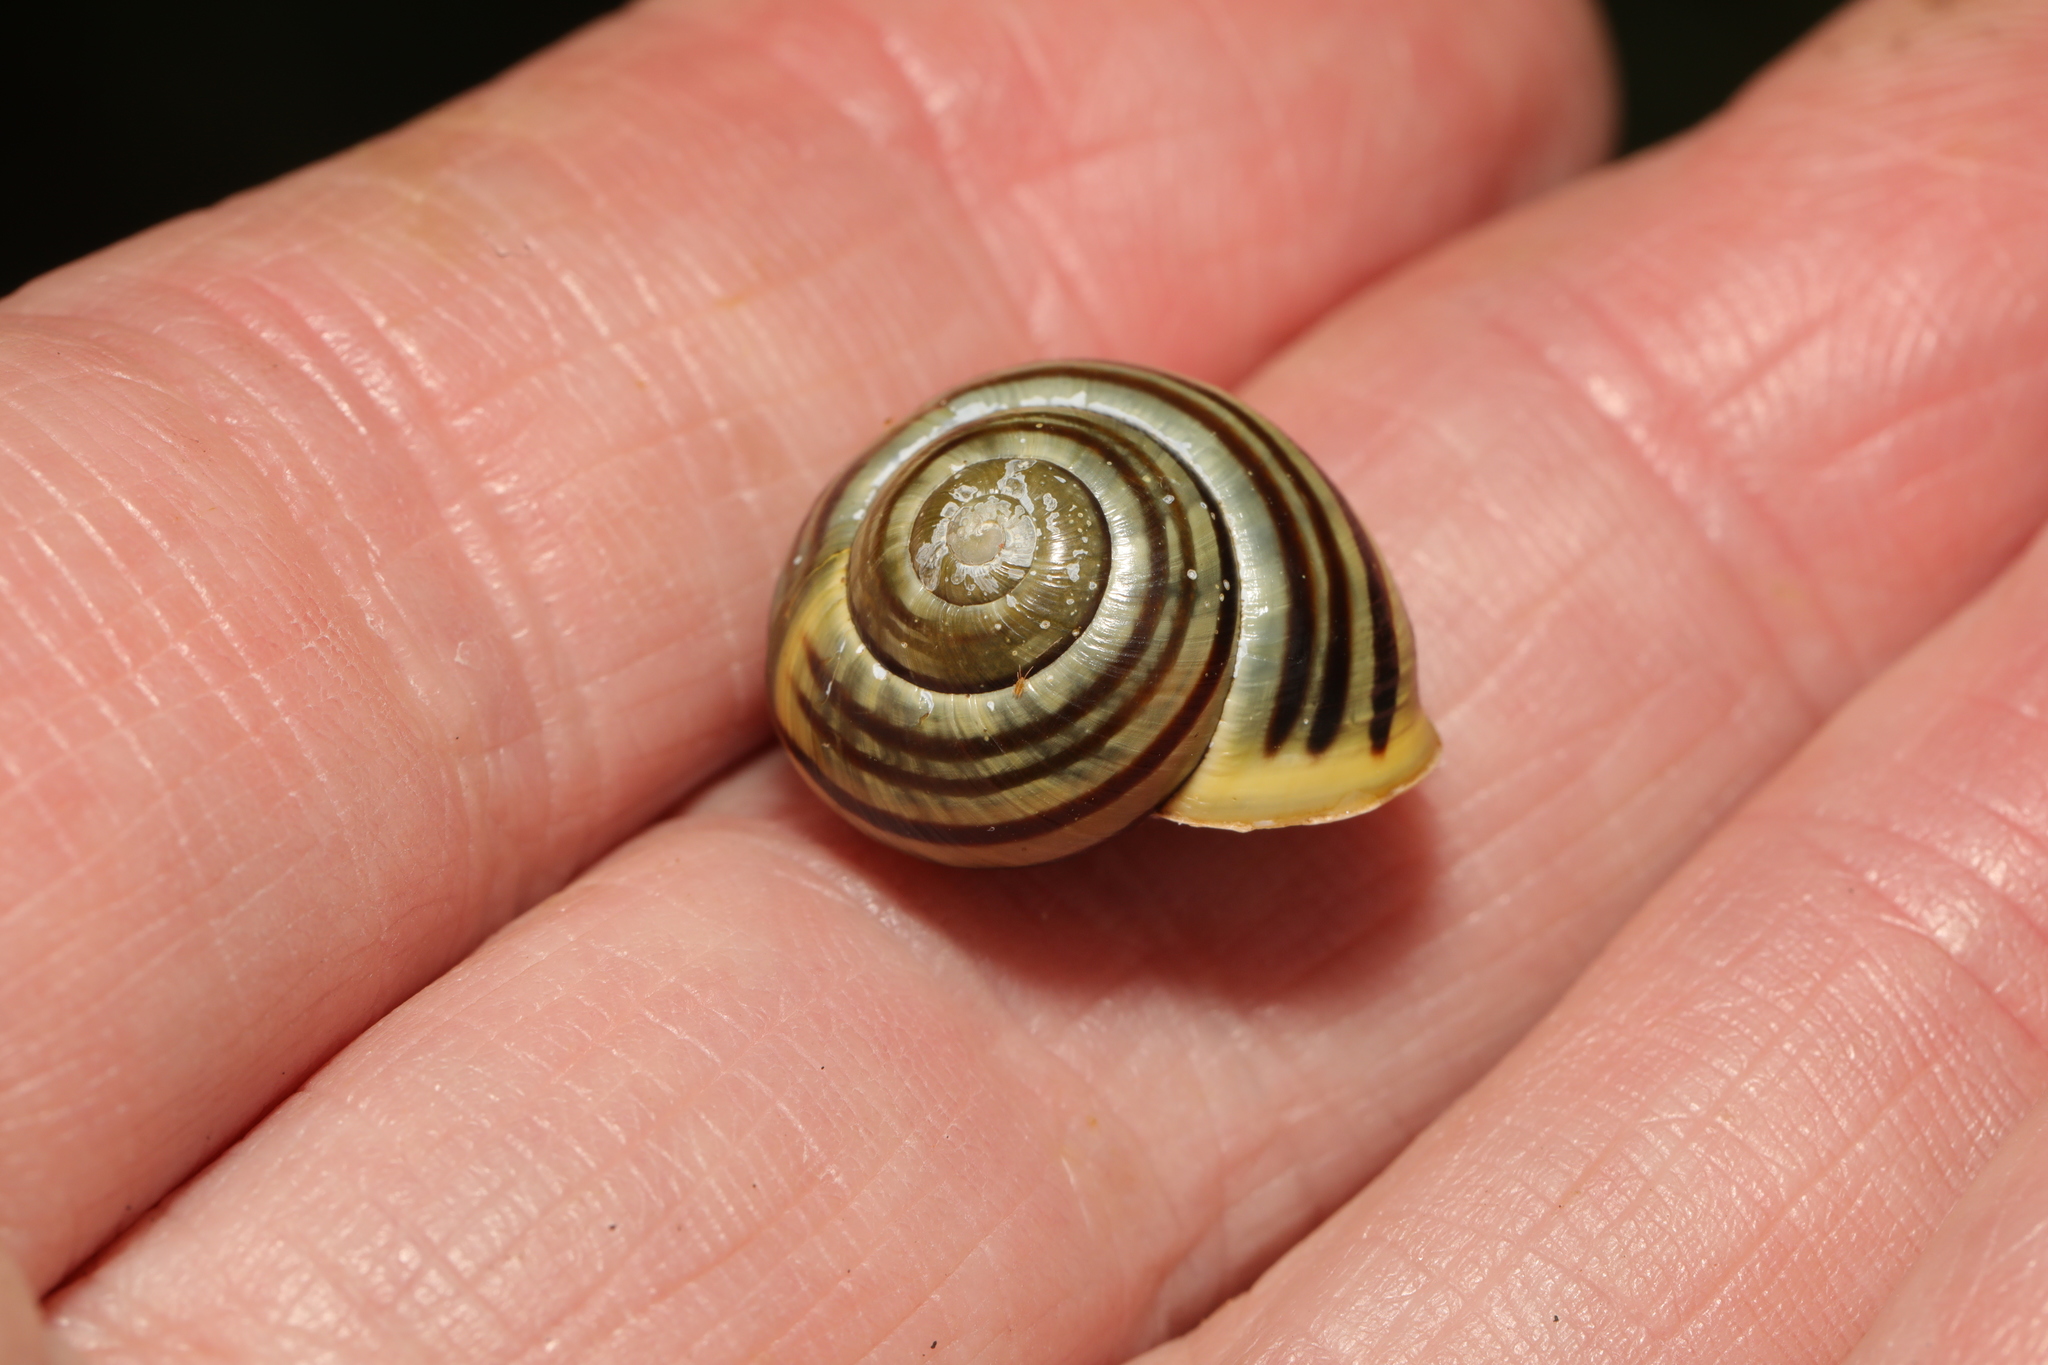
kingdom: Animalia
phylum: Mollusca
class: Gastropoda
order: Stylommatophora
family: Helicidae
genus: Cepaea
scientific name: Cepaea hortensis
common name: White-lip gardensnail
